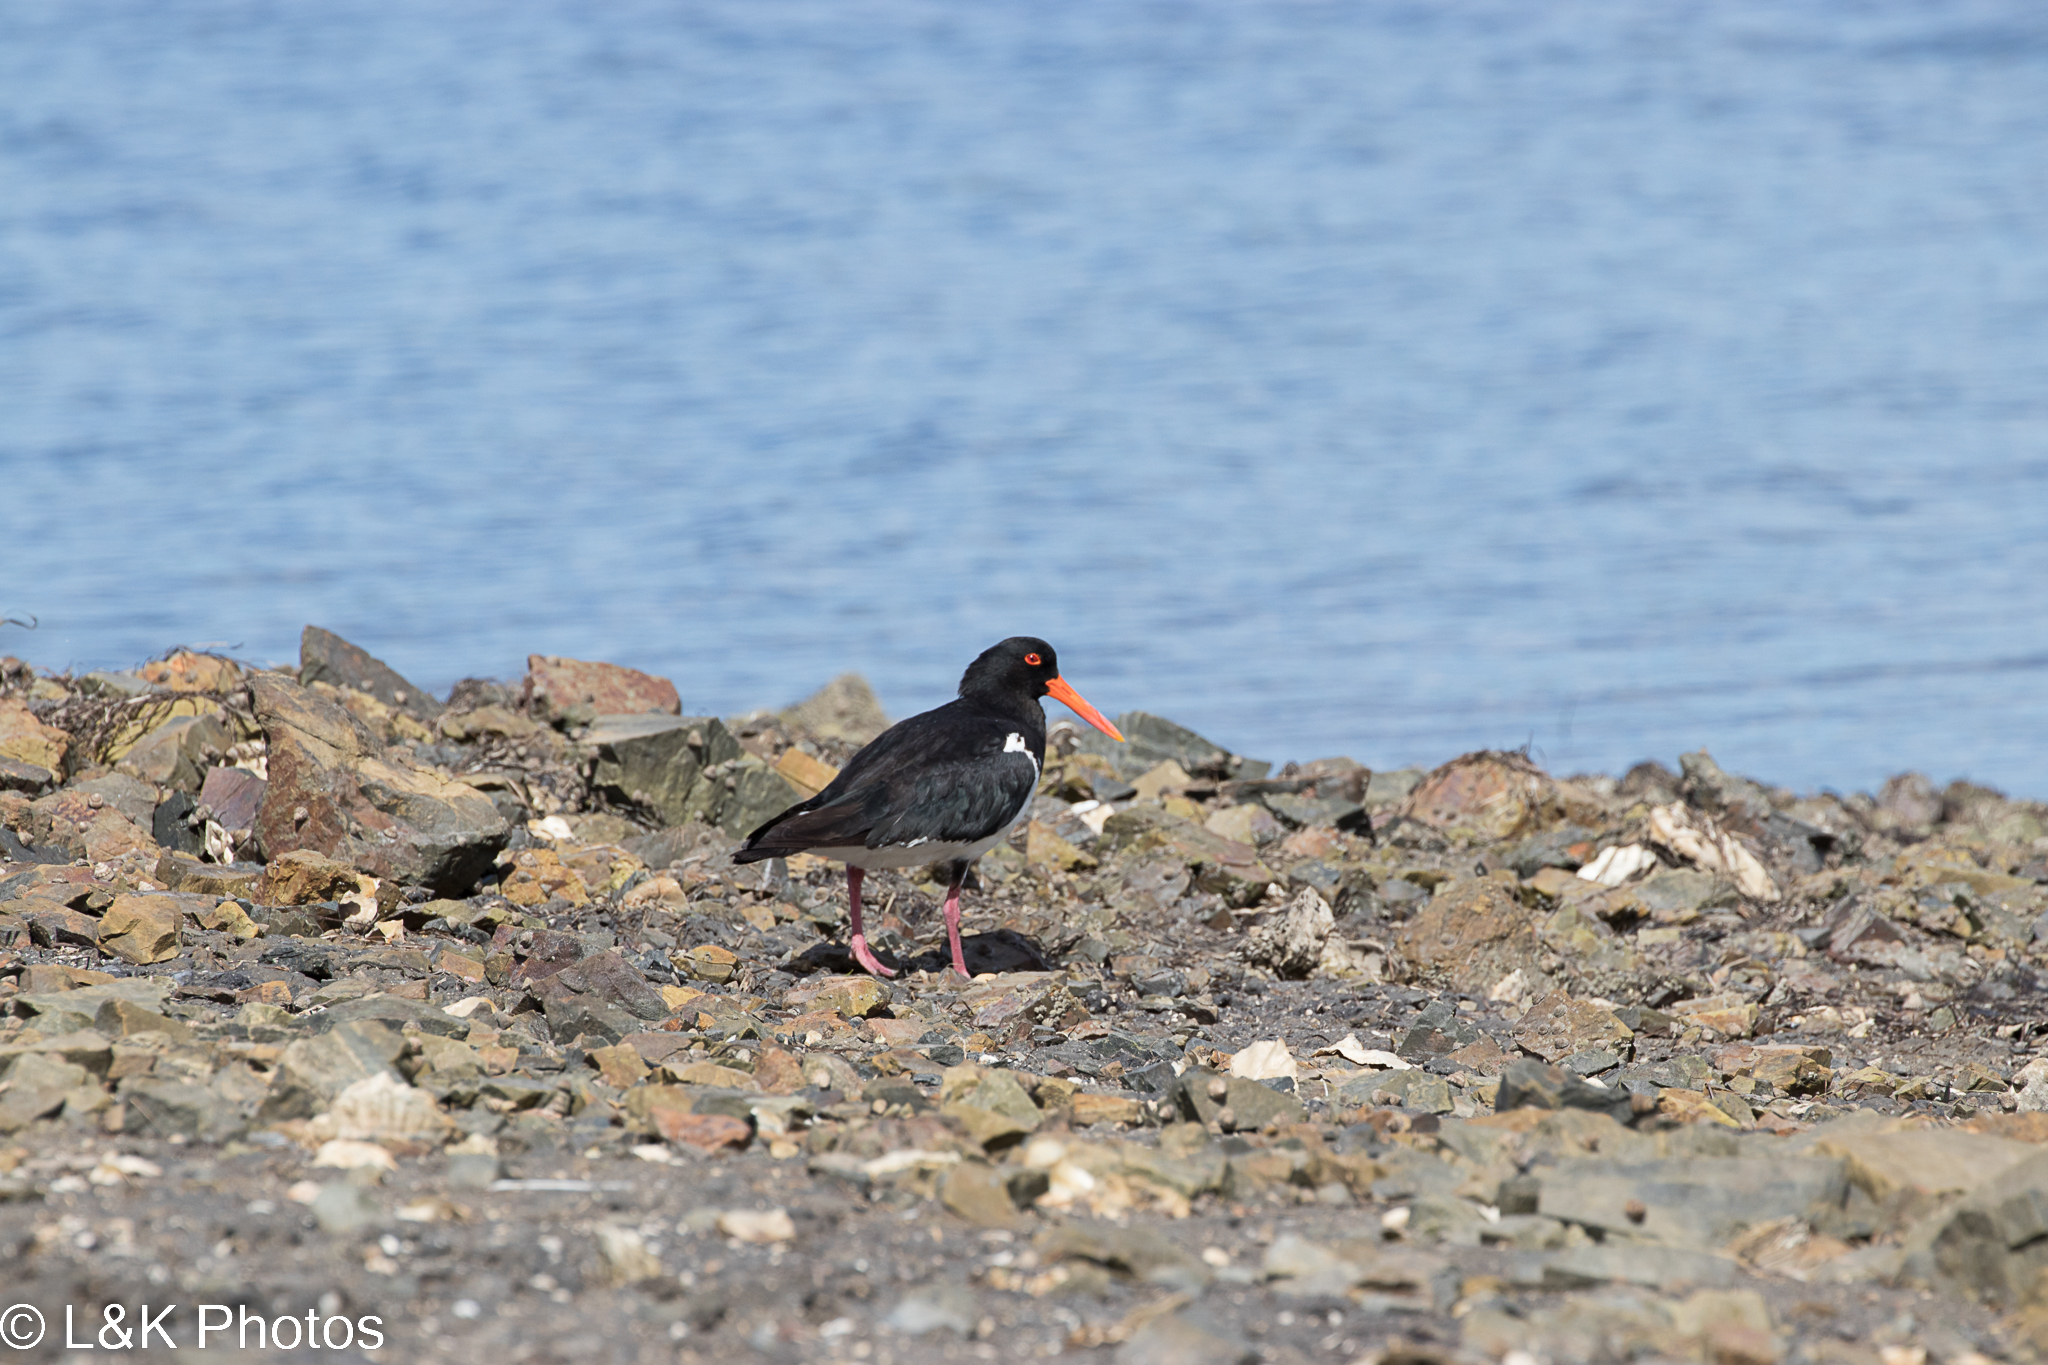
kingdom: Animalia
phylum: Chordata
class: Aves
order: Charadriiformes
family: Haematopodidae
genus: Haematopus
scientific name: Haematopus longirostris
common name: Pied oystercatcher
